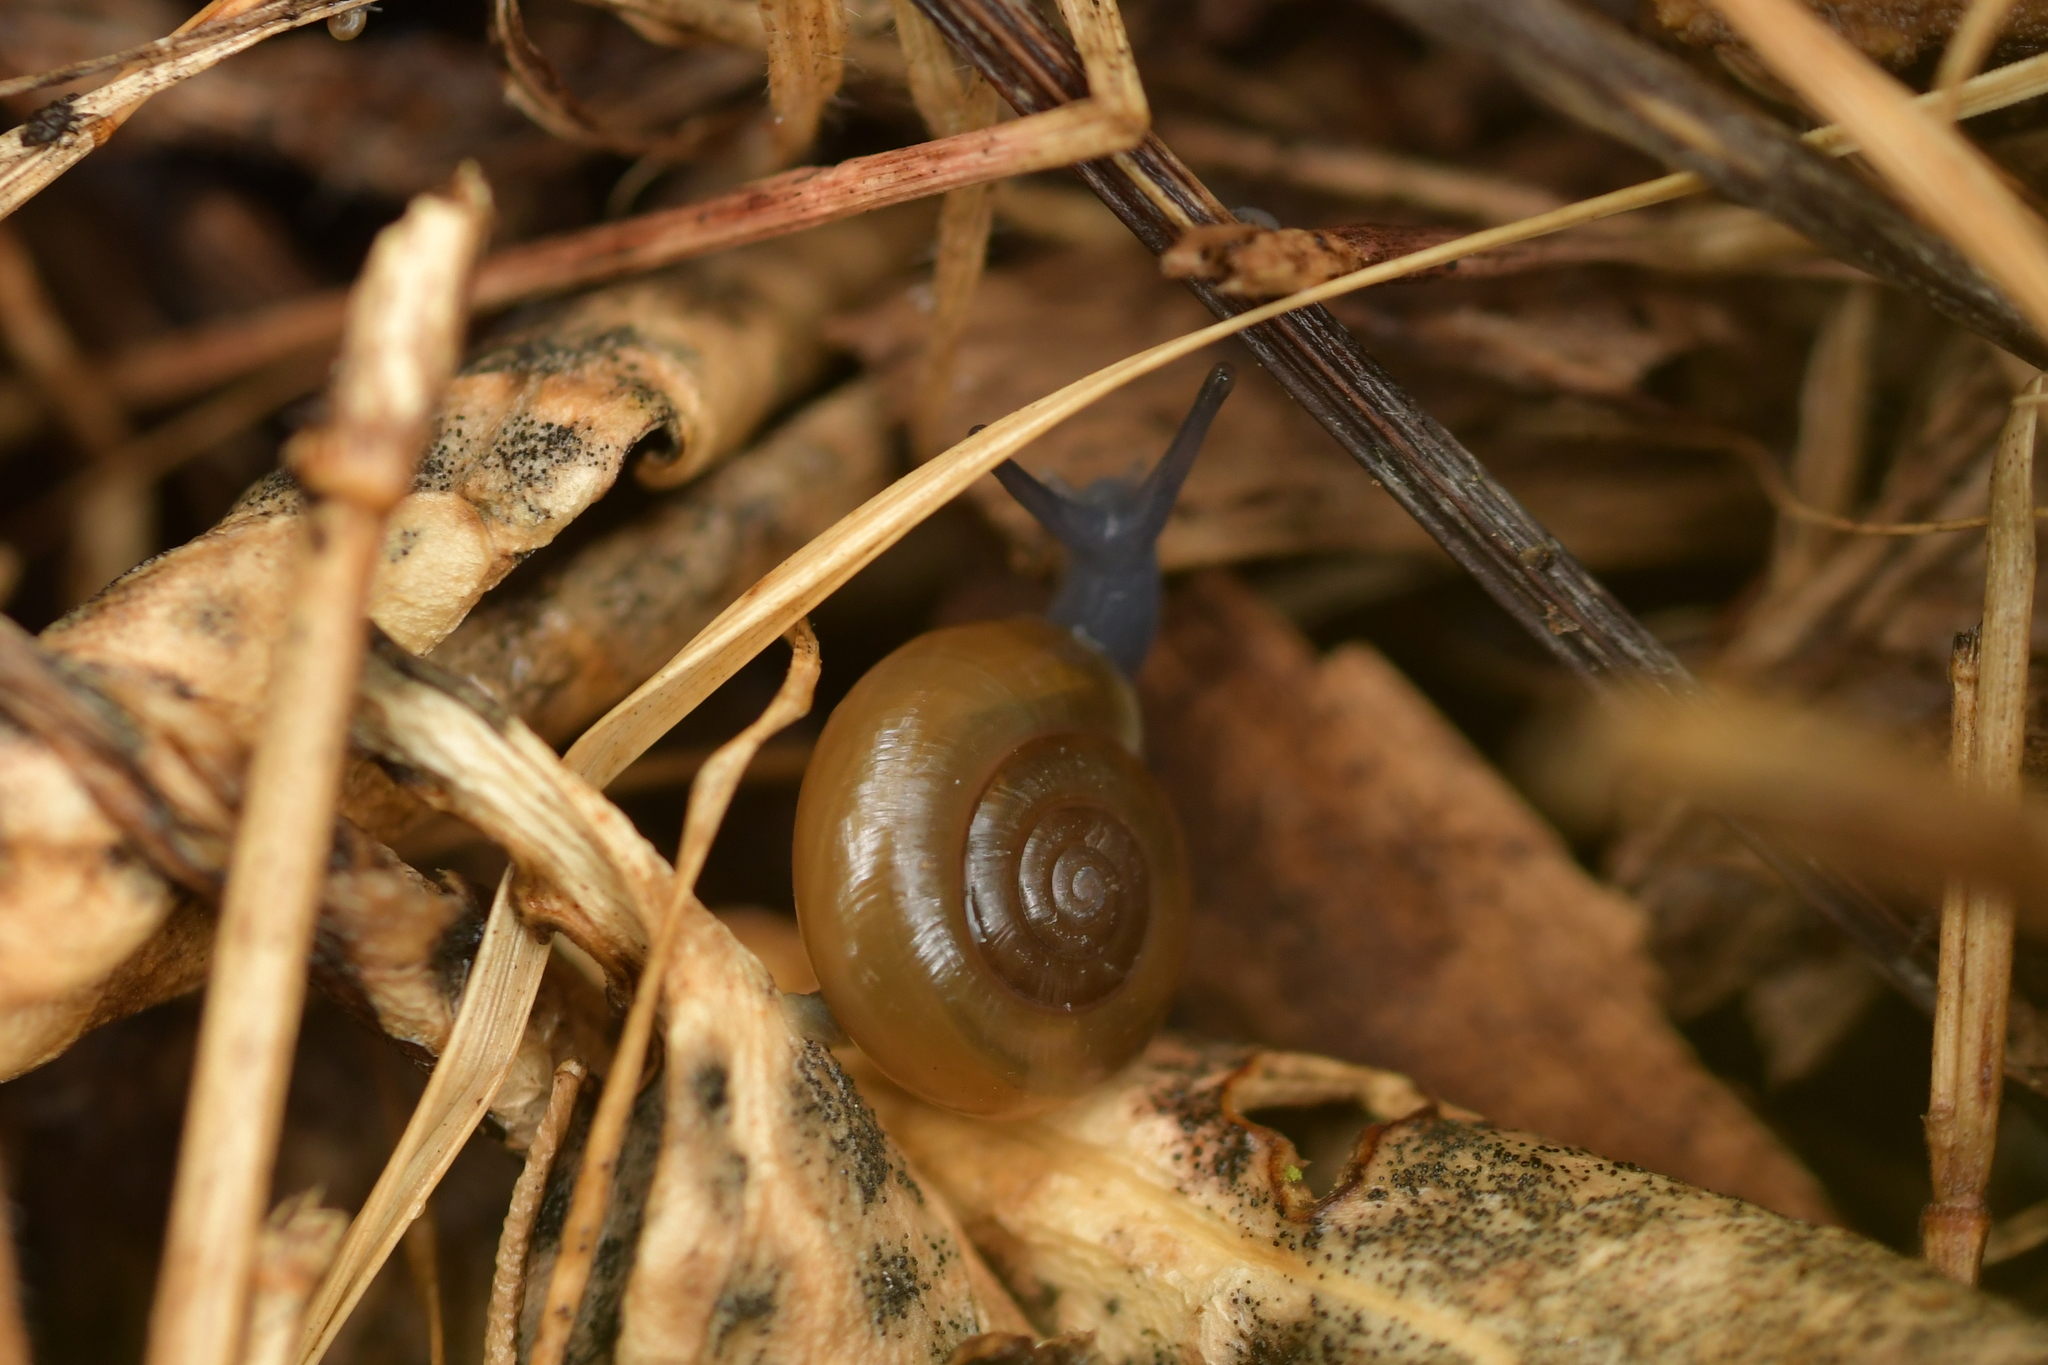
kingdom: Animalia
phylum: Mollusca
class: Gastropoda
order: Stylommatophora
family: Oxychilidae
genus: Oxychilus
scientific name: Oxychilus draparnaudi
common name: Draparnaud's glass snail
